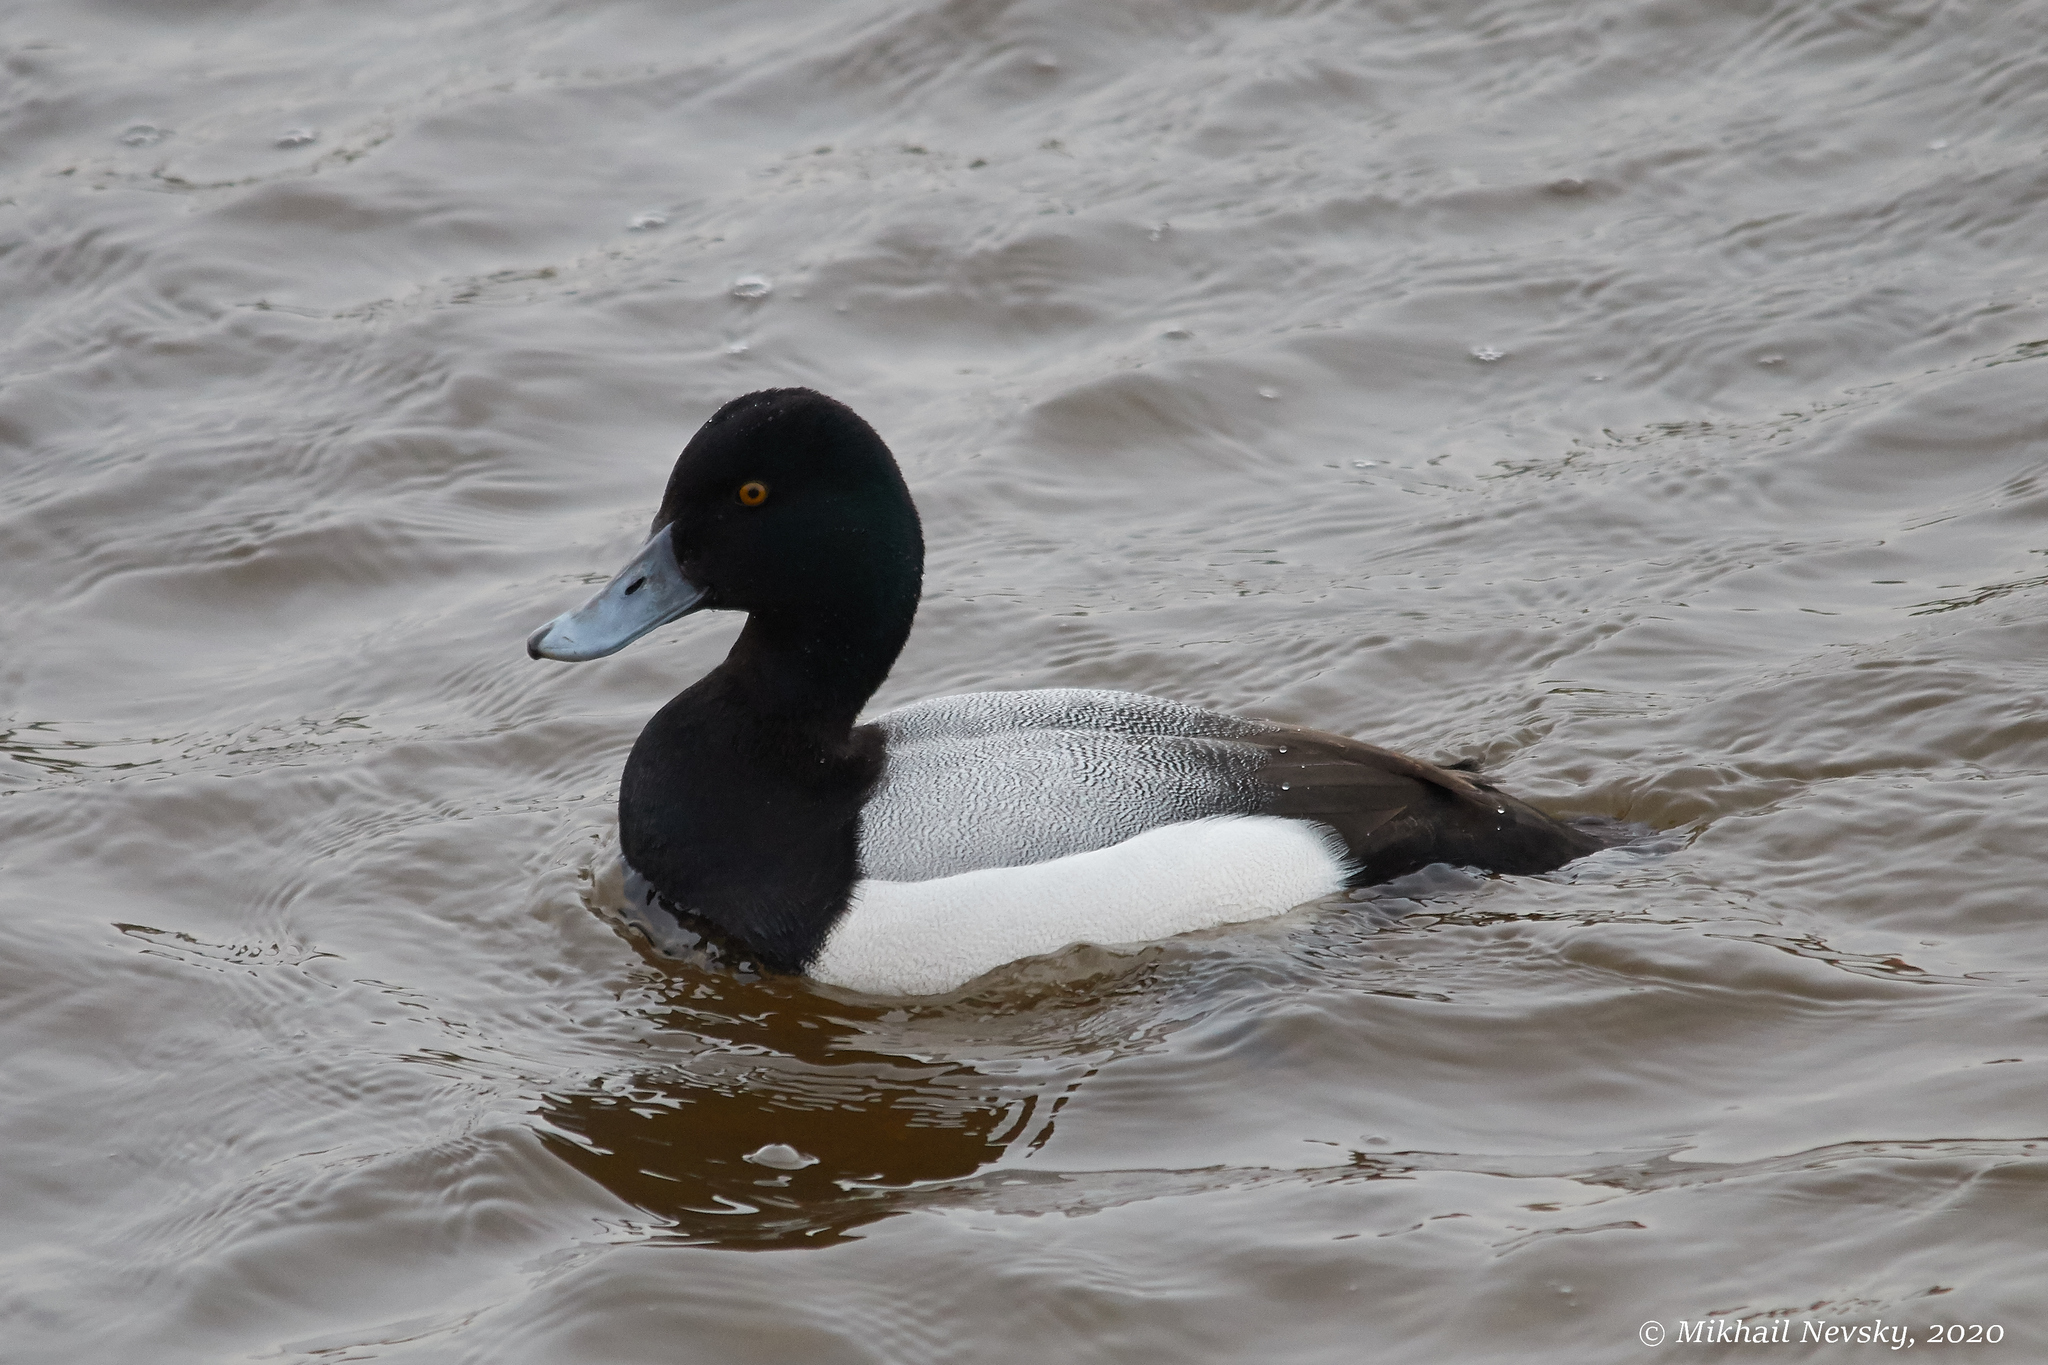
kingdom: Animalia
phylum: Chordata
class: Aves
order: Anseriformes
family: Anatidae
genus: Aythya
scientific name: Aythya marila
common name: Greater scaup
